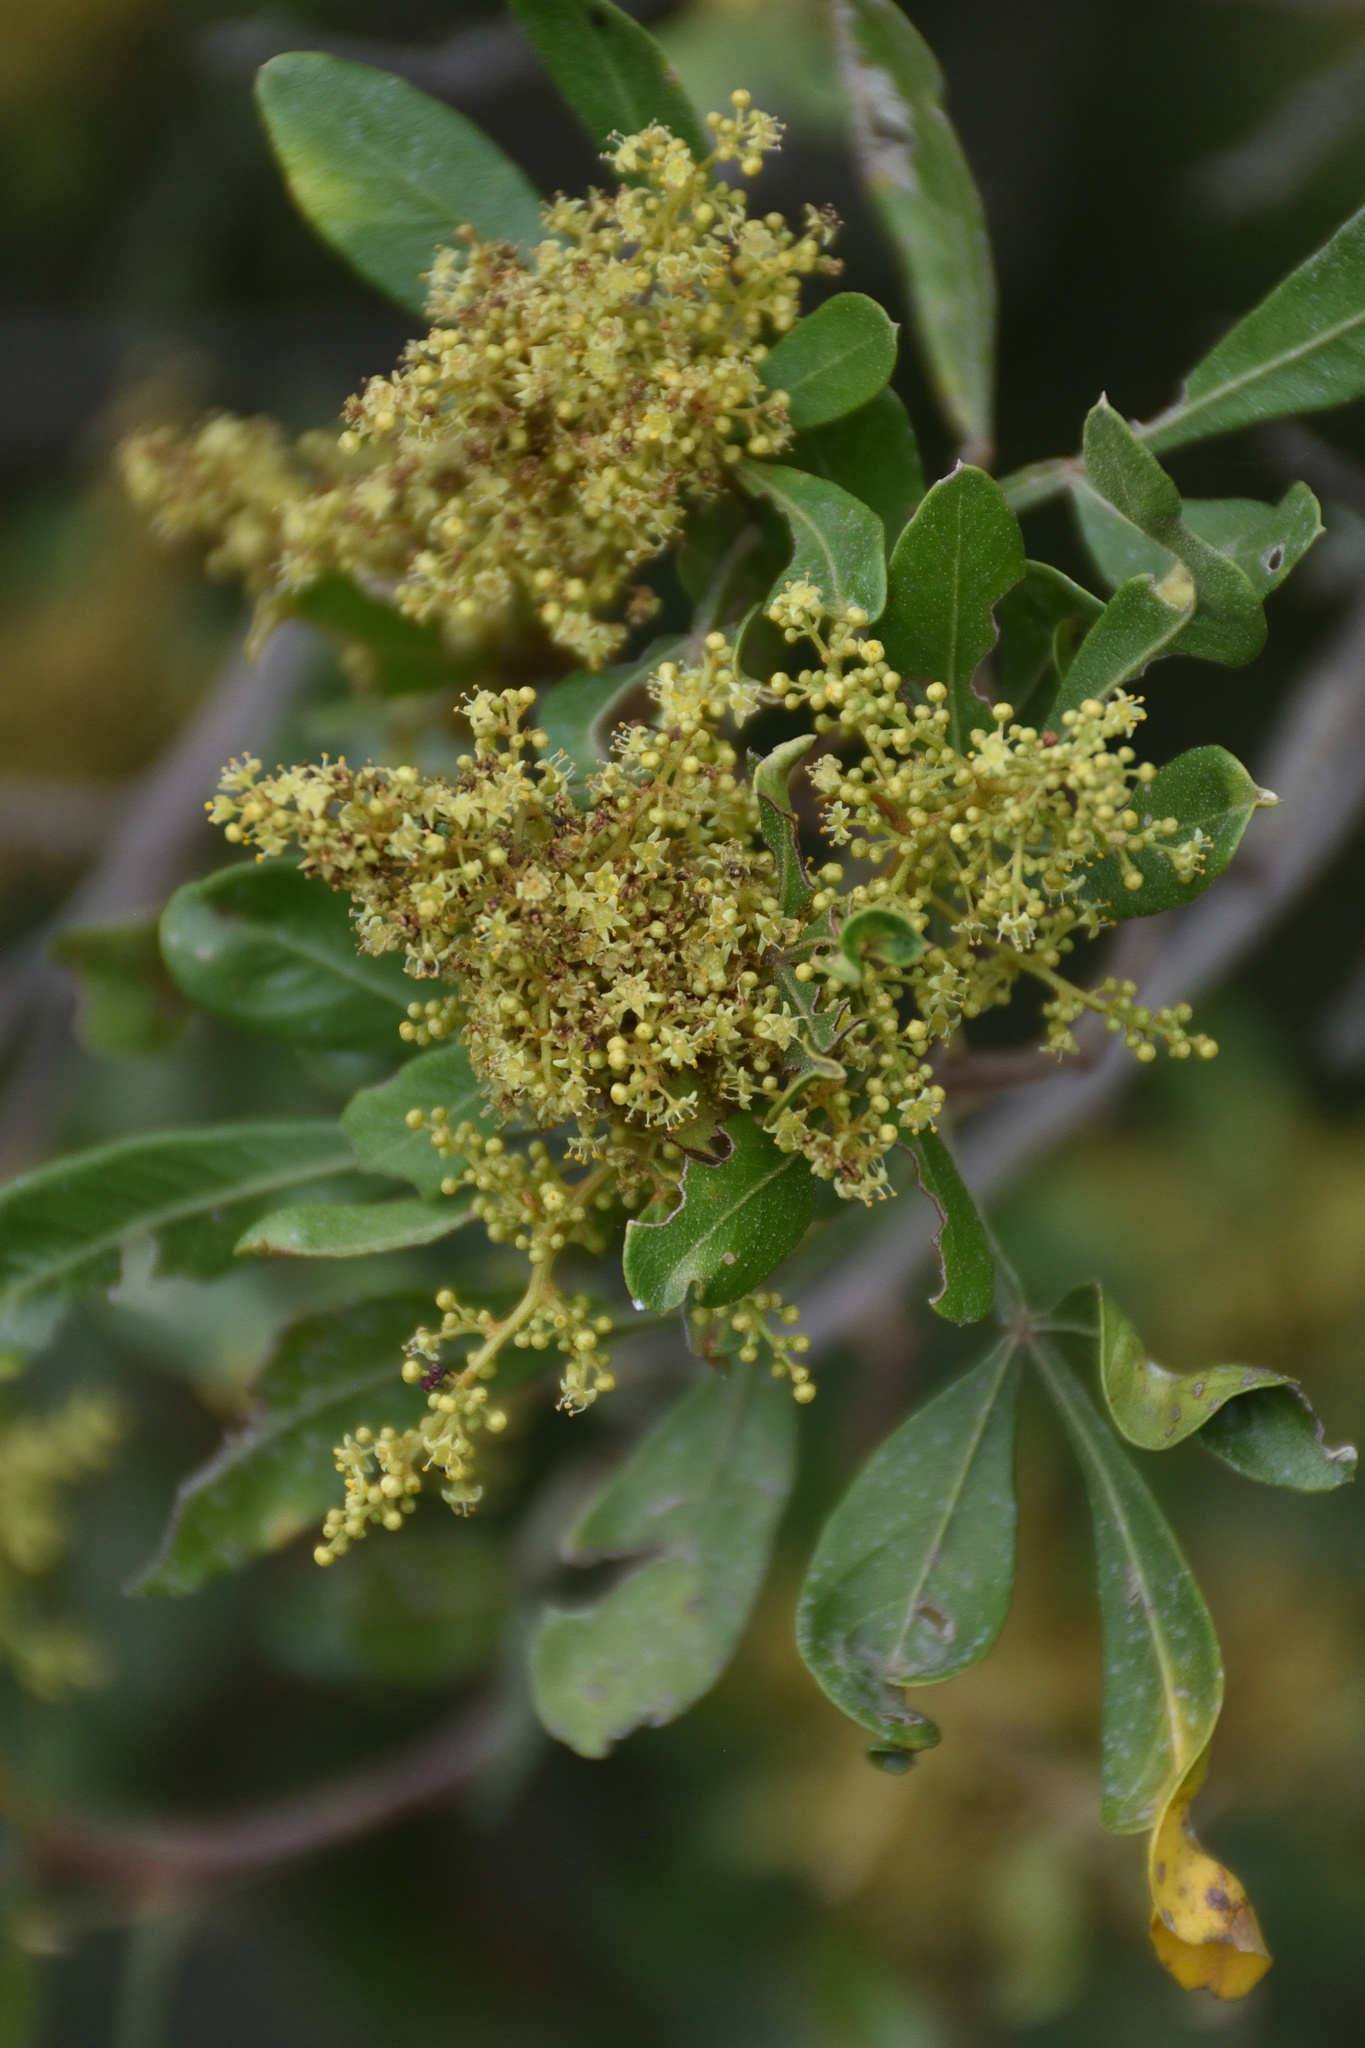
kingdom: Plantae
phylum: Tracheophyta
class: Magnoliopsida
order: Sapindales
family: Anacardiaceae
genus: Searsia
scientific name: Searsia pallens
